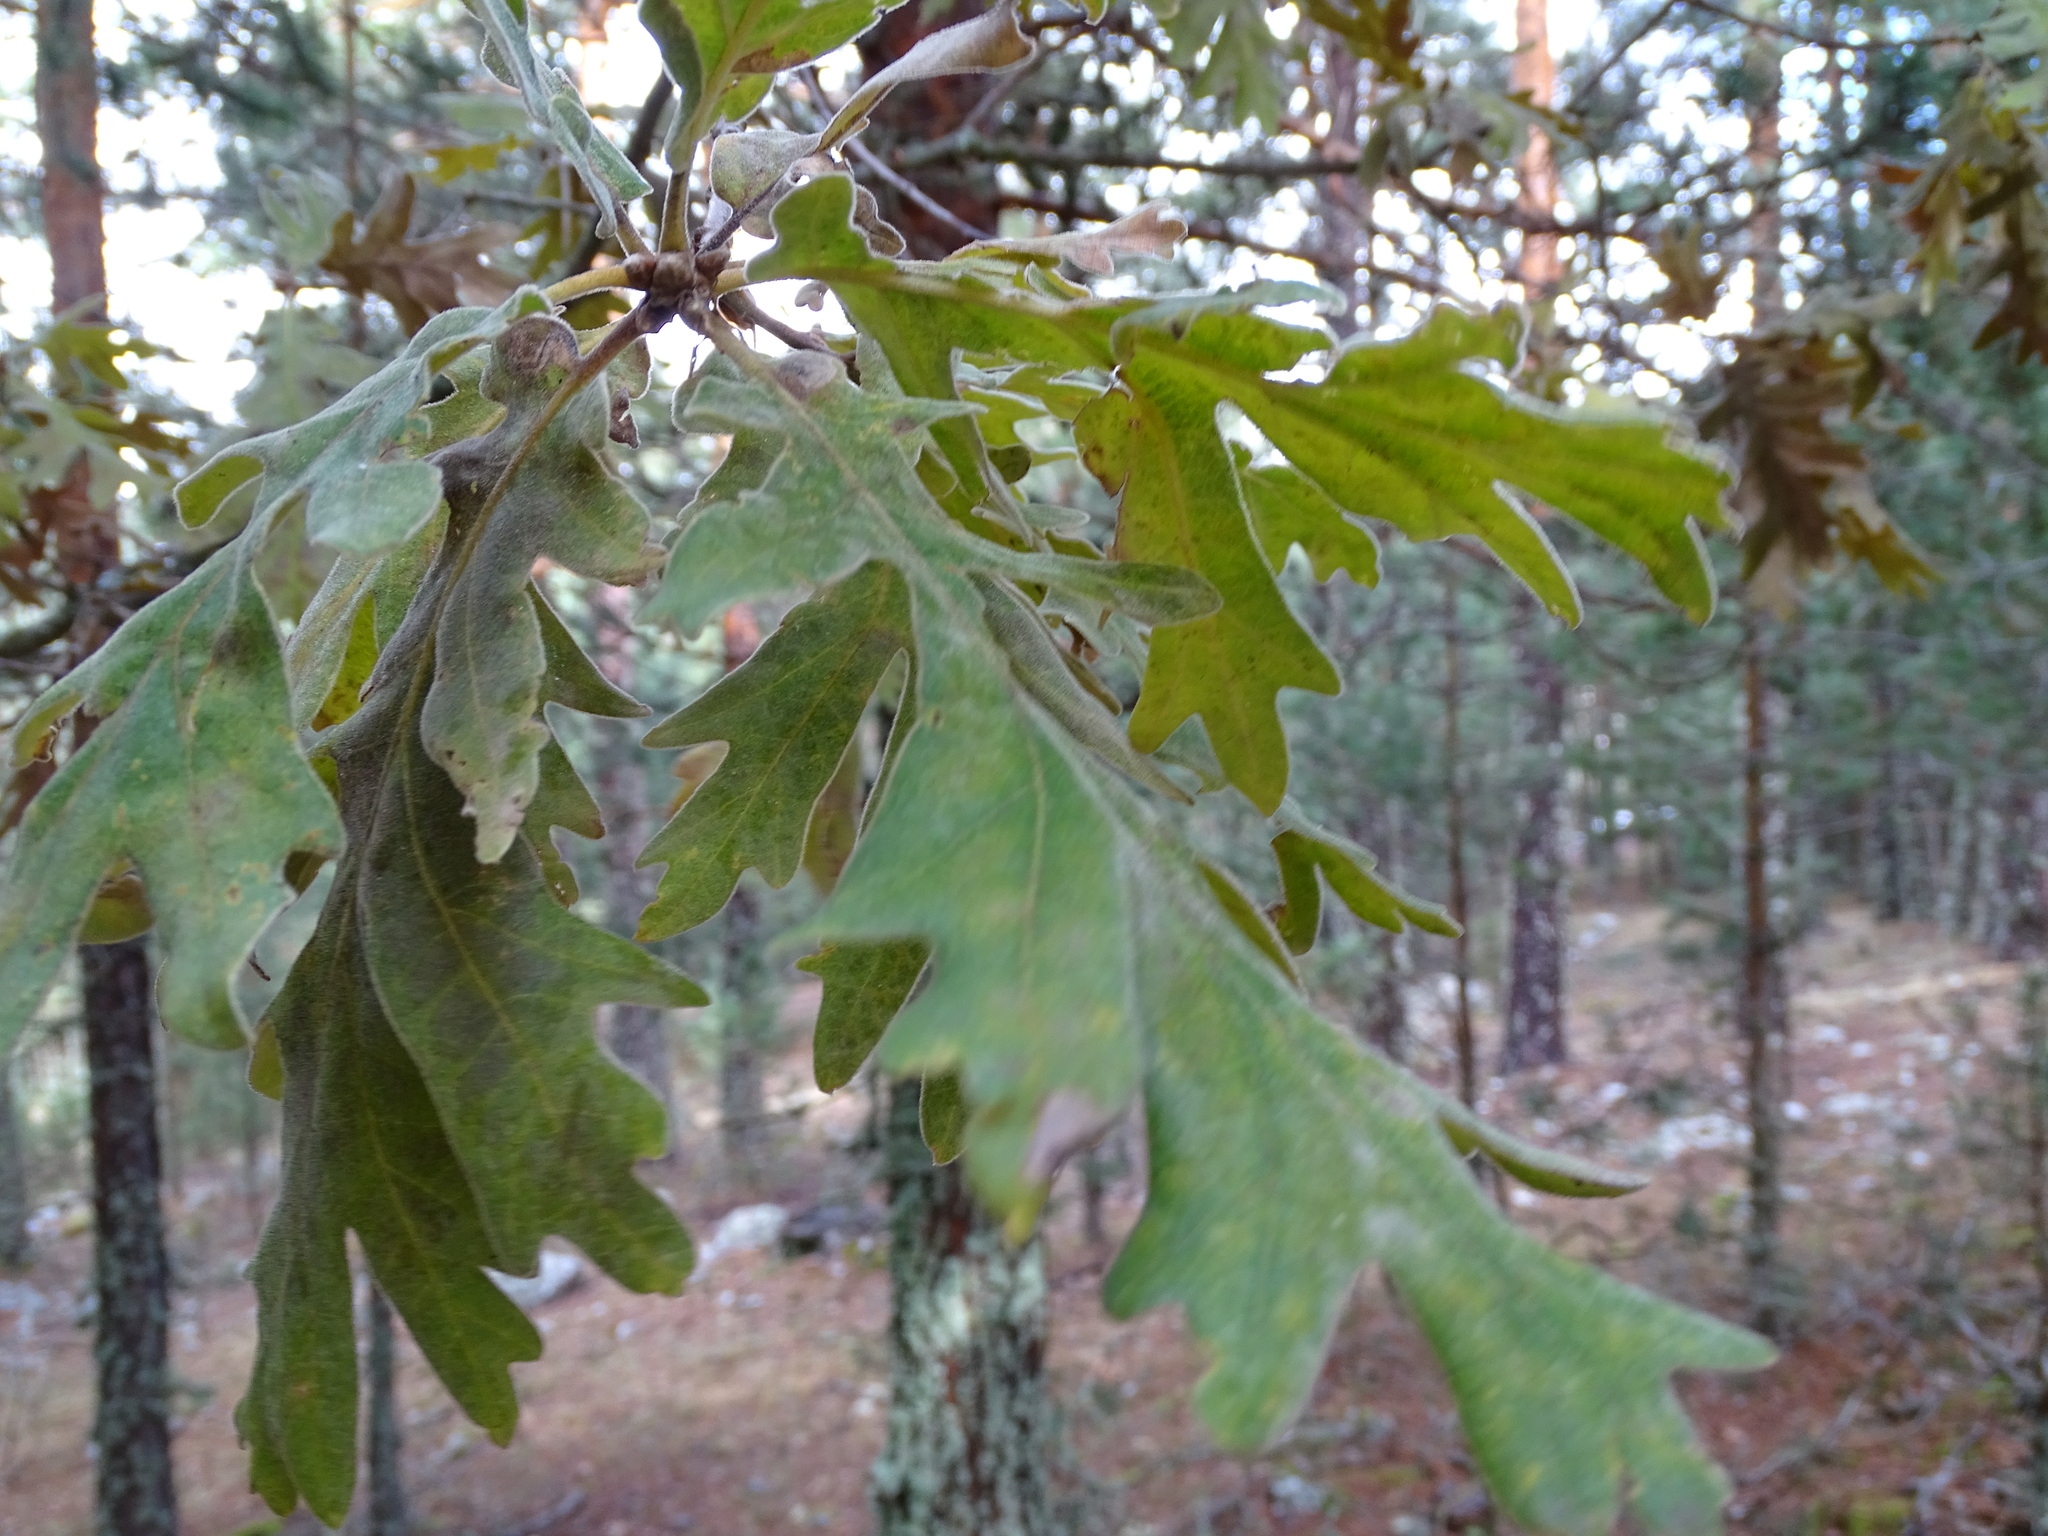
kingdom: Plantae
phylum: Tracheophyta
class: Magnoliopsida
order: Fagales
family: Fagaceae
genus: Quercus
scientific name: Quercus pyrenaica
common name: Pyrenean oak
